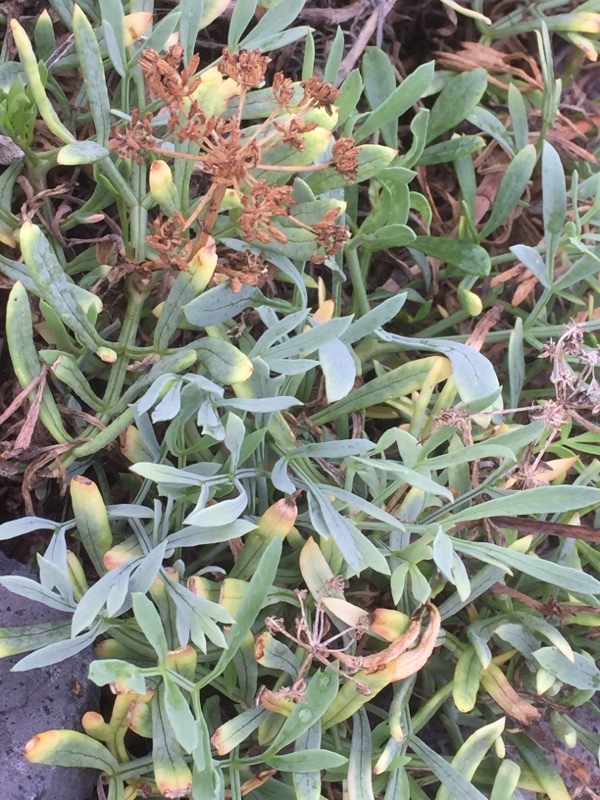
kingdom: Plantae
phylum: Tracheophyta
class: Magnoliopsida
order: Apiales
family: Apiaceae
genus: Crithmum
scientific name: Crithmum maritimum
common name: Rock samphire
